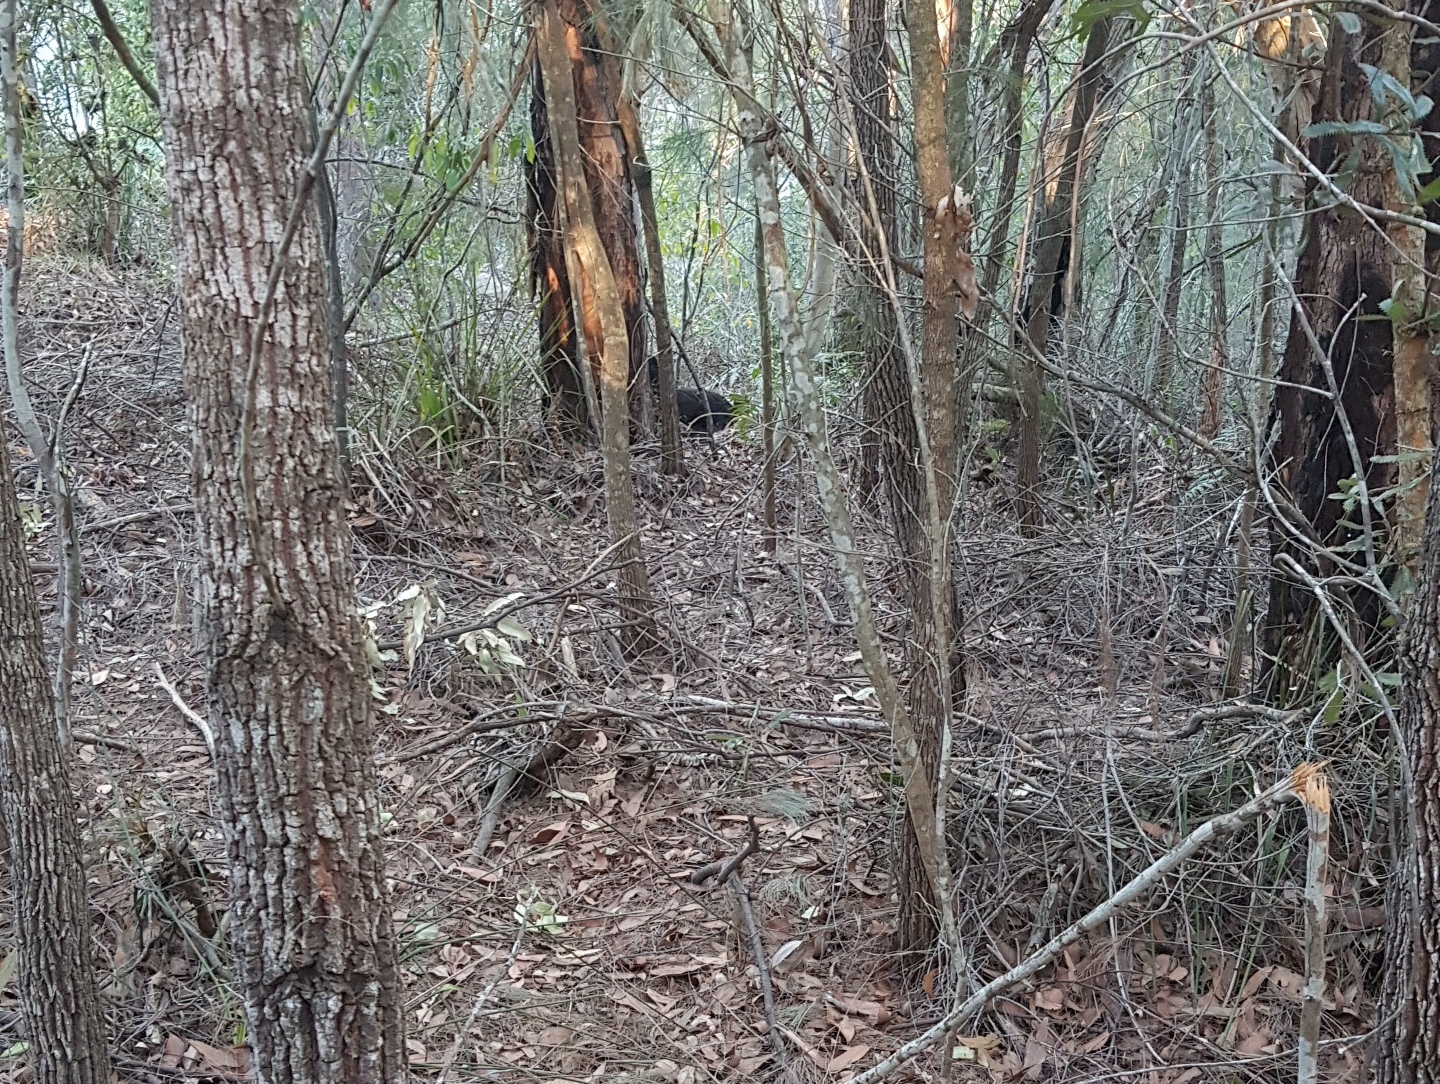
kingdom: Animalia
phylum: Chordata
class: Aves
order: Galliformes
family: Megapodiidae
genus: Alectura
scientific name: Alectura lathami
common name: Australian brushturkey
